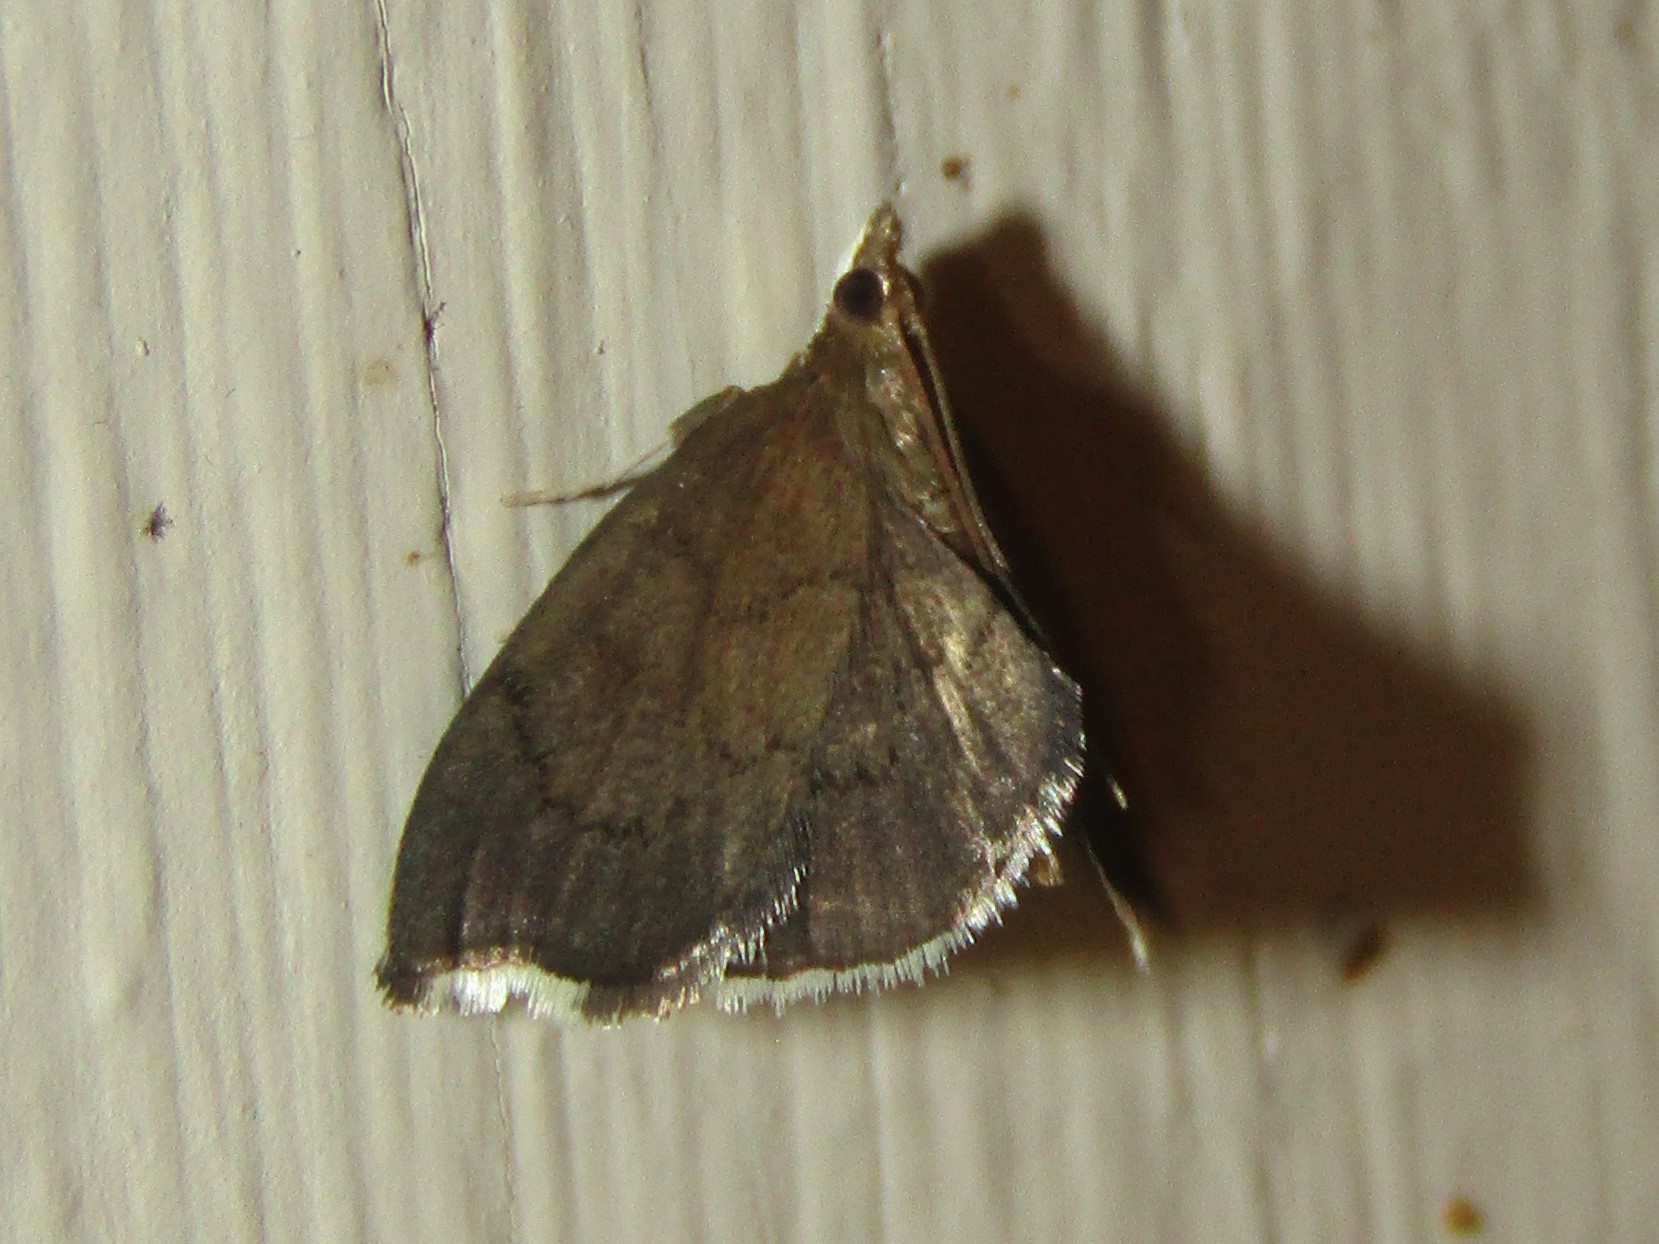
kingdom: Animalia
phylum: Arthropoda
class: Insecta
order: Lepidoptera
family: Crambidae
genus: Perispasta
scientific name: Perispasta caeculalis
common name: Titian peale's moth
